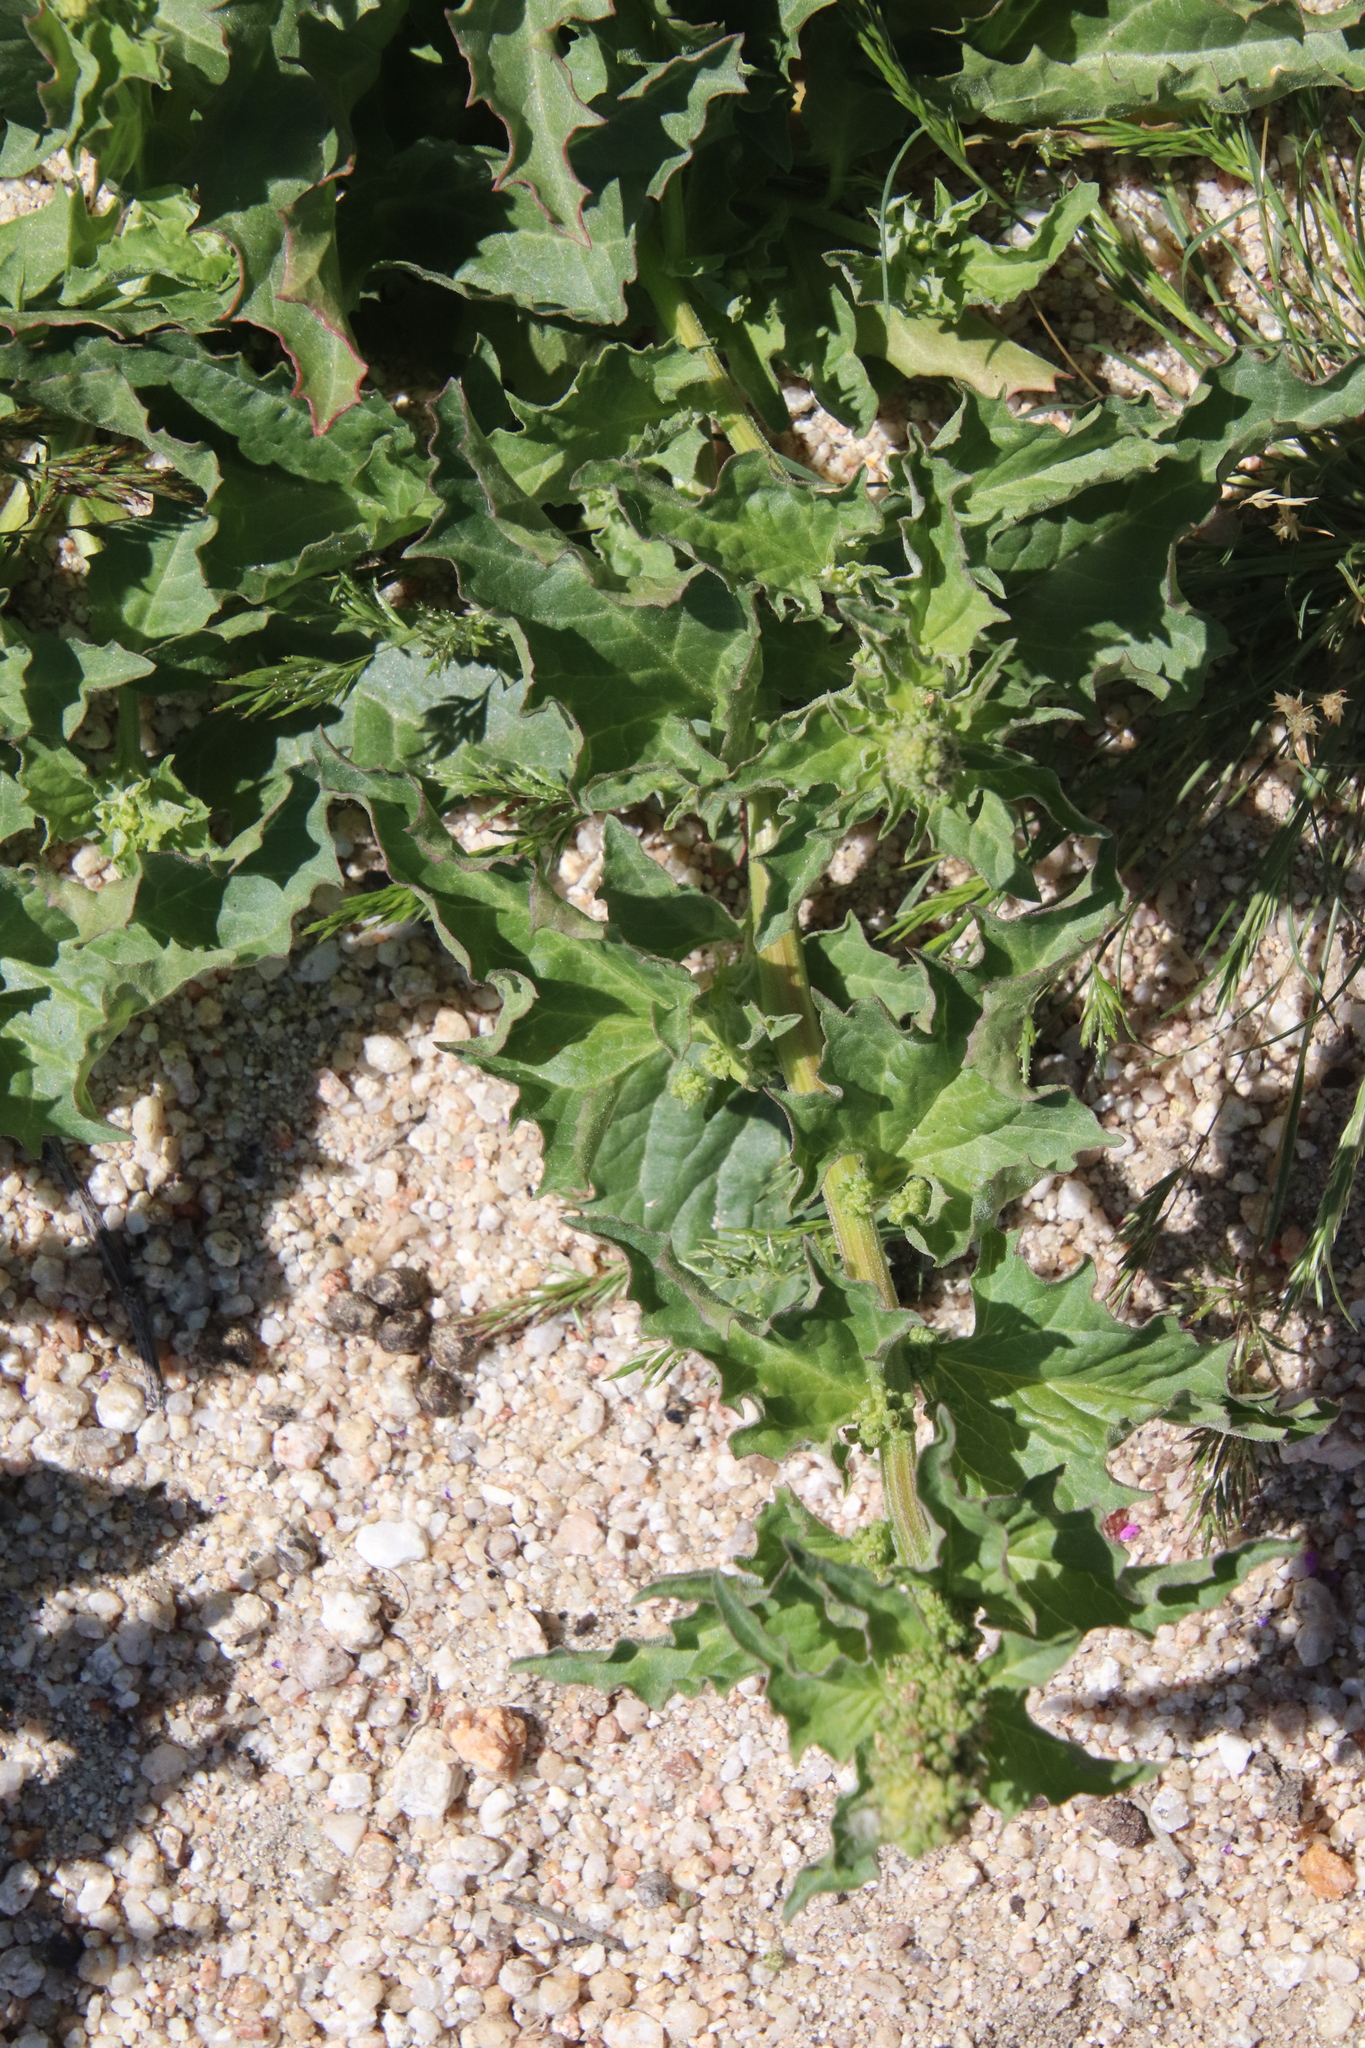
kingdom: Plantae
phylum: Tracheophyta
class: Magnoliopsida
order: Caryophyllales
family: Amaranthaceae
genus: Blitum
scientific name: Blitum californicum
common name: California goosefoot
